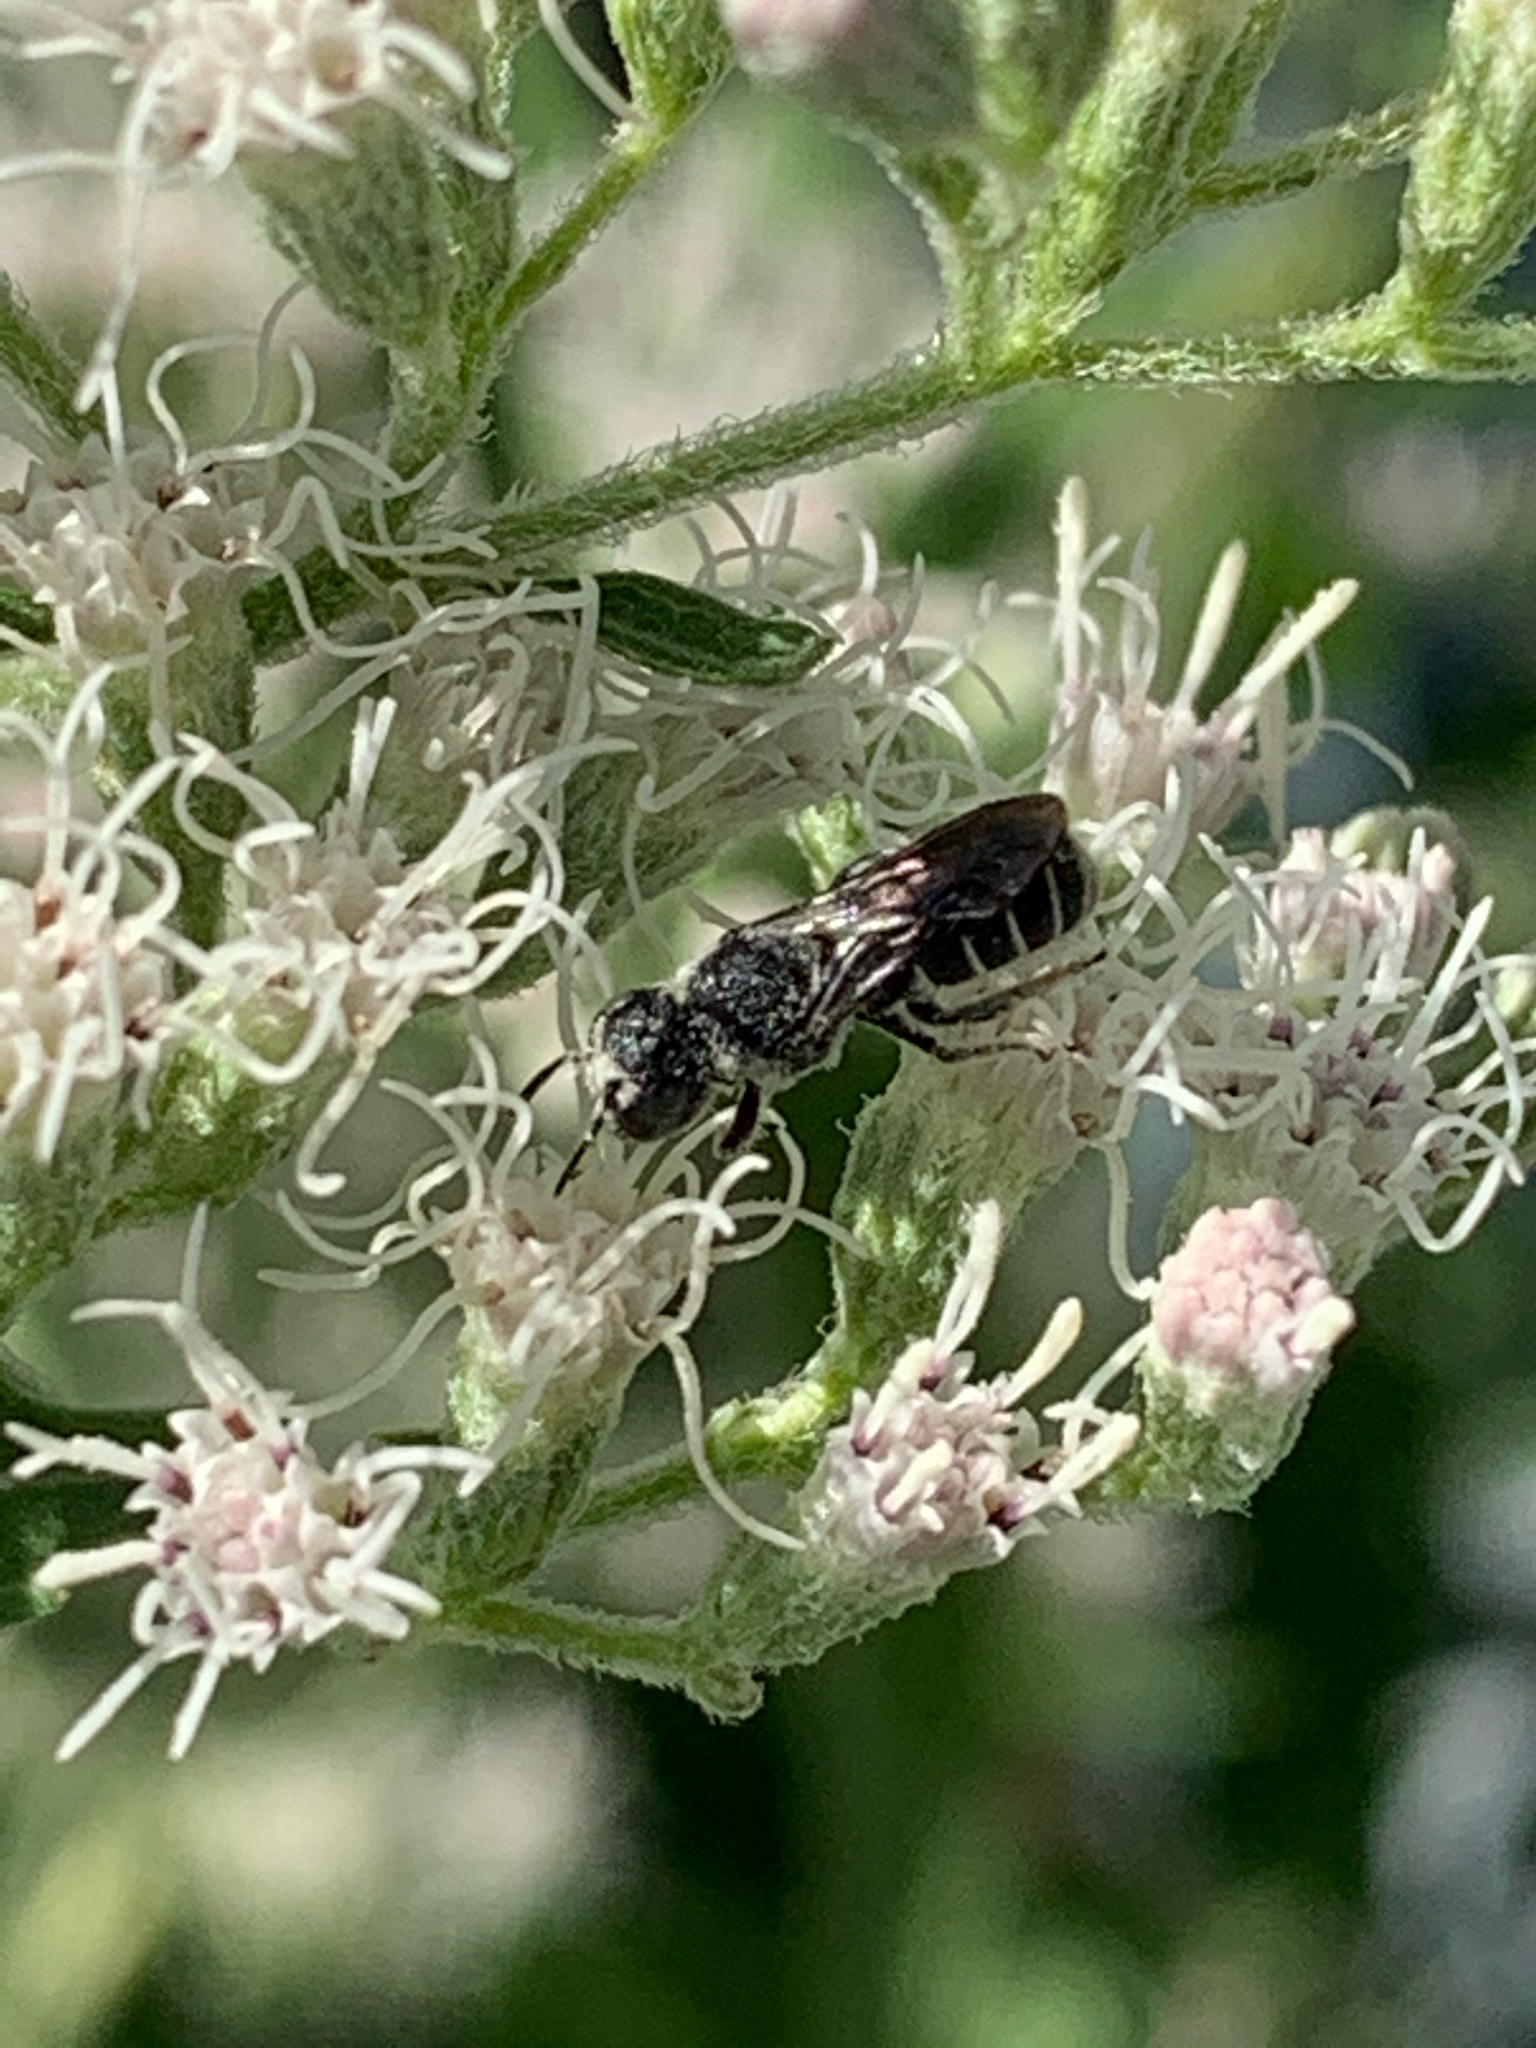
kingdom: Animalia
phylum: Arthropoda
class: Insecta
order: Hymenoptera
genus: Neotrypetes
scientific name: Neotrypetes
